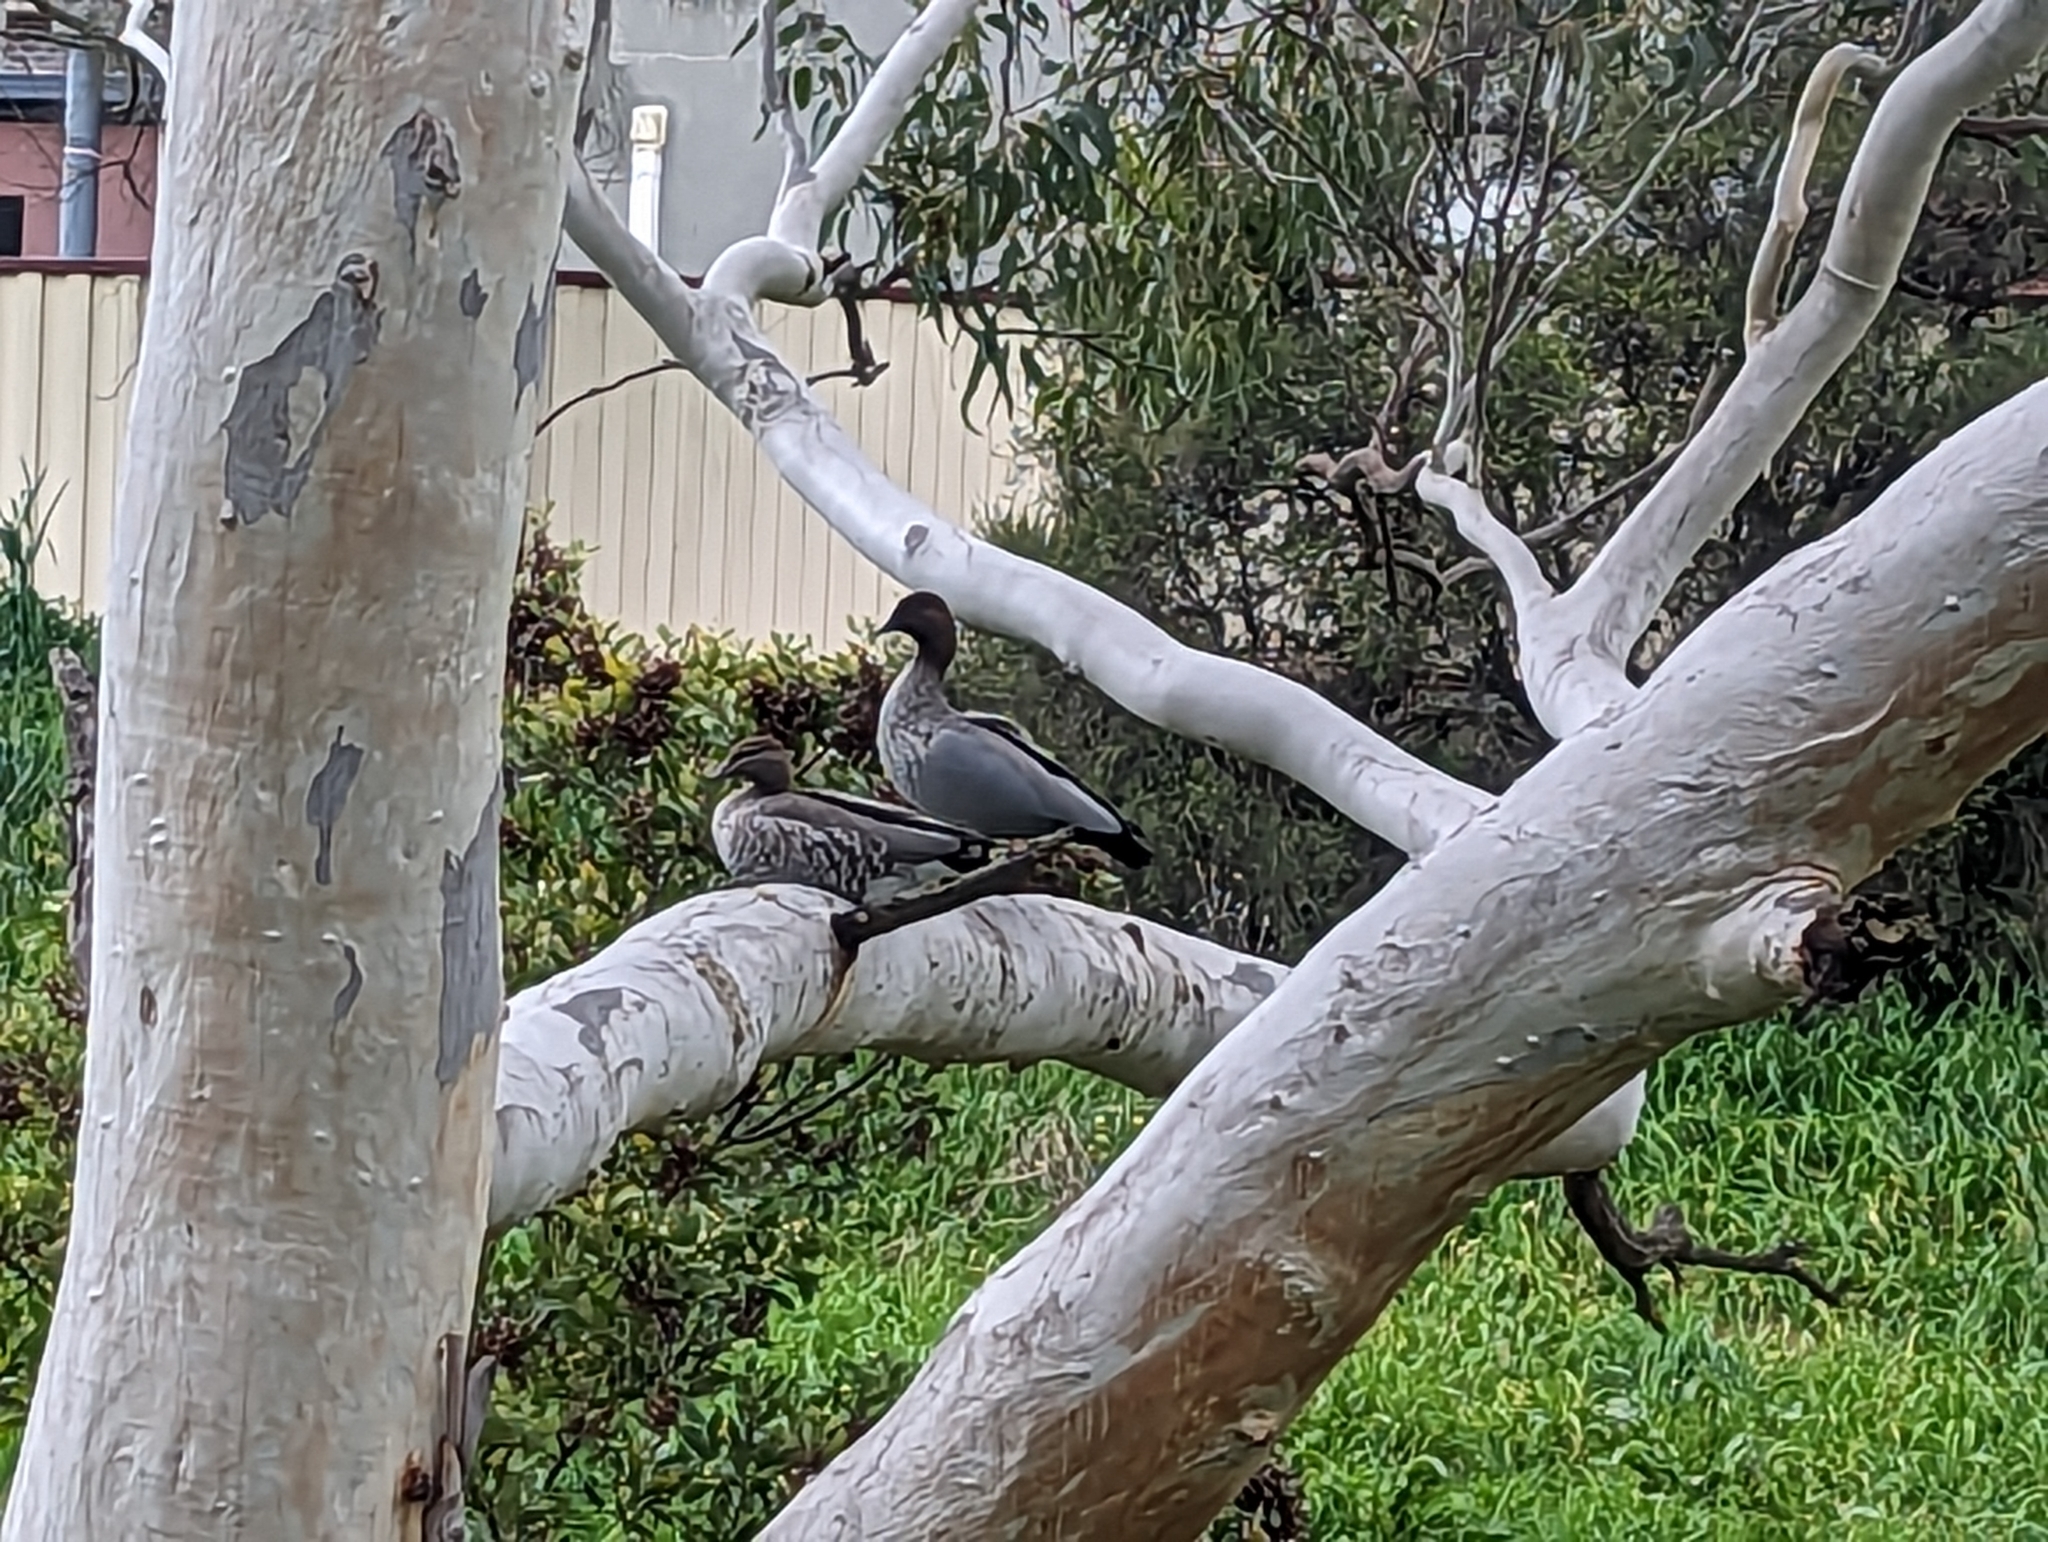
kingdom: Animalia
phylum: Chordata
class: Aves
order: Anseriformes
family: Anatidae
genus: Chenonetta
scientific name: Chenonetta jubata
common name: Maned duck
